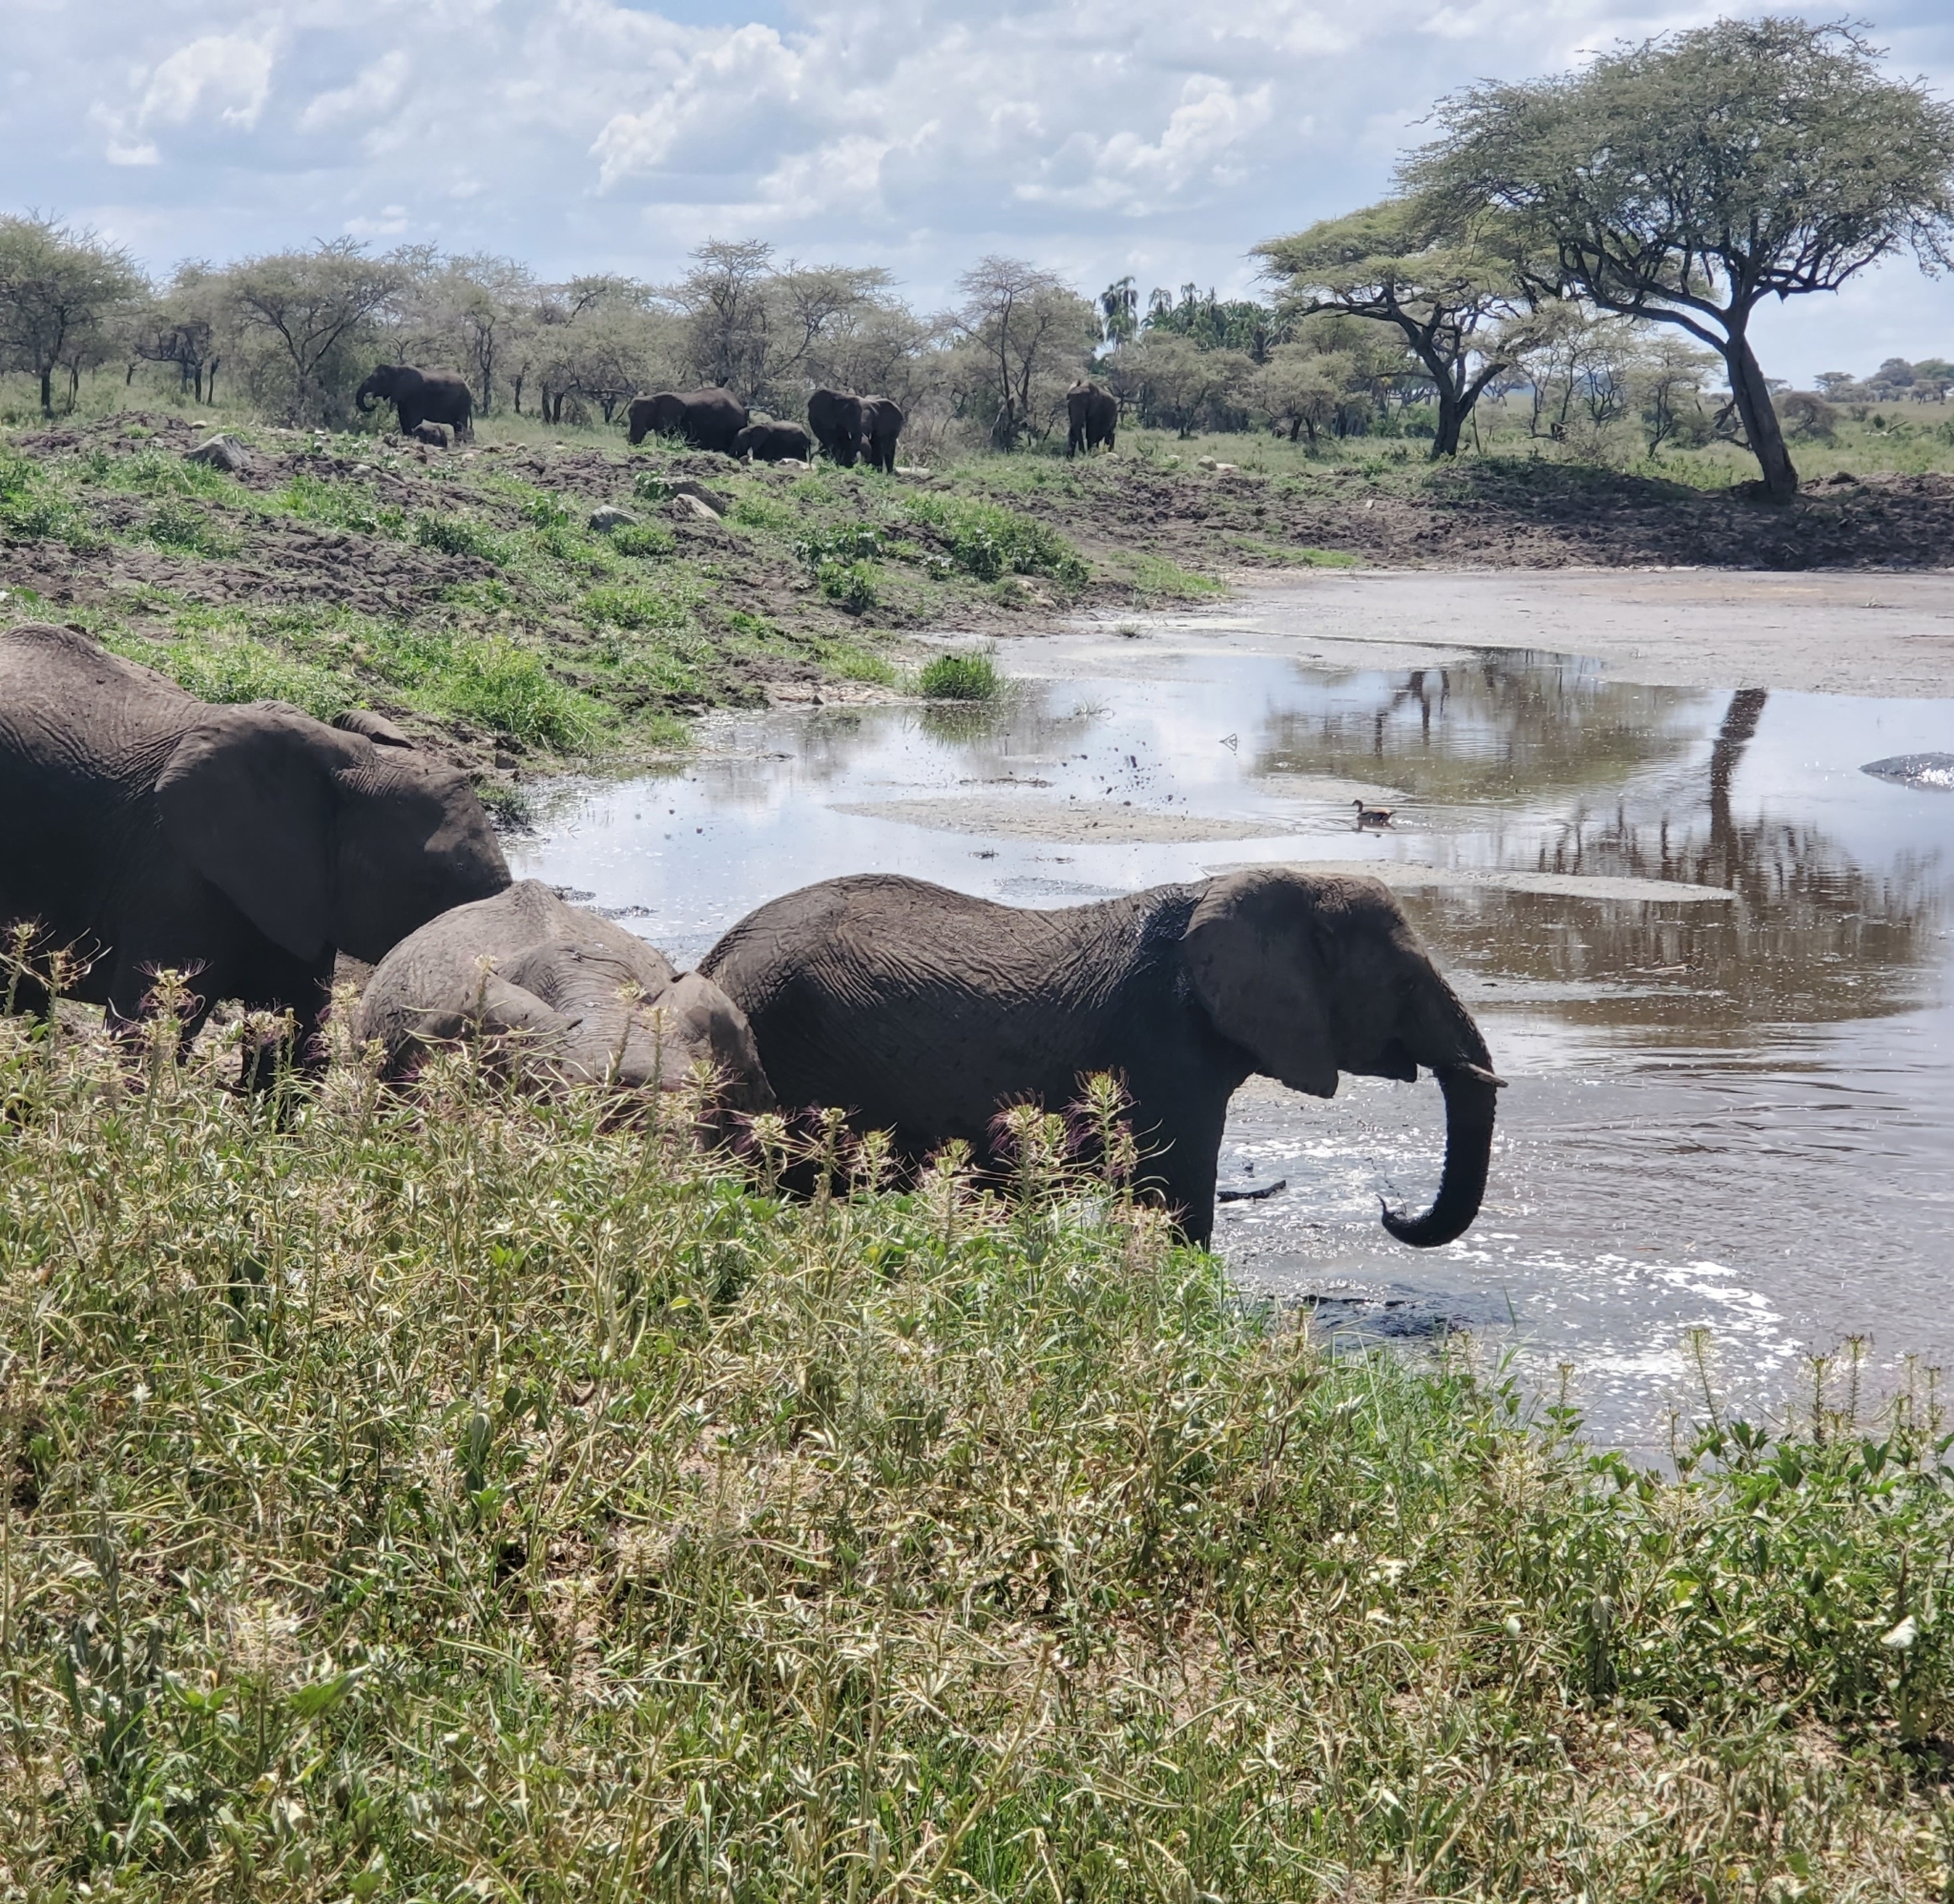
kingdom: Animalia
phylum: Chordata
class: Mammalia
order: Proboscidea
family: Elephantidae
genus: Loxodonta
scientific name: Loxodonta africana
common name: African elephant
